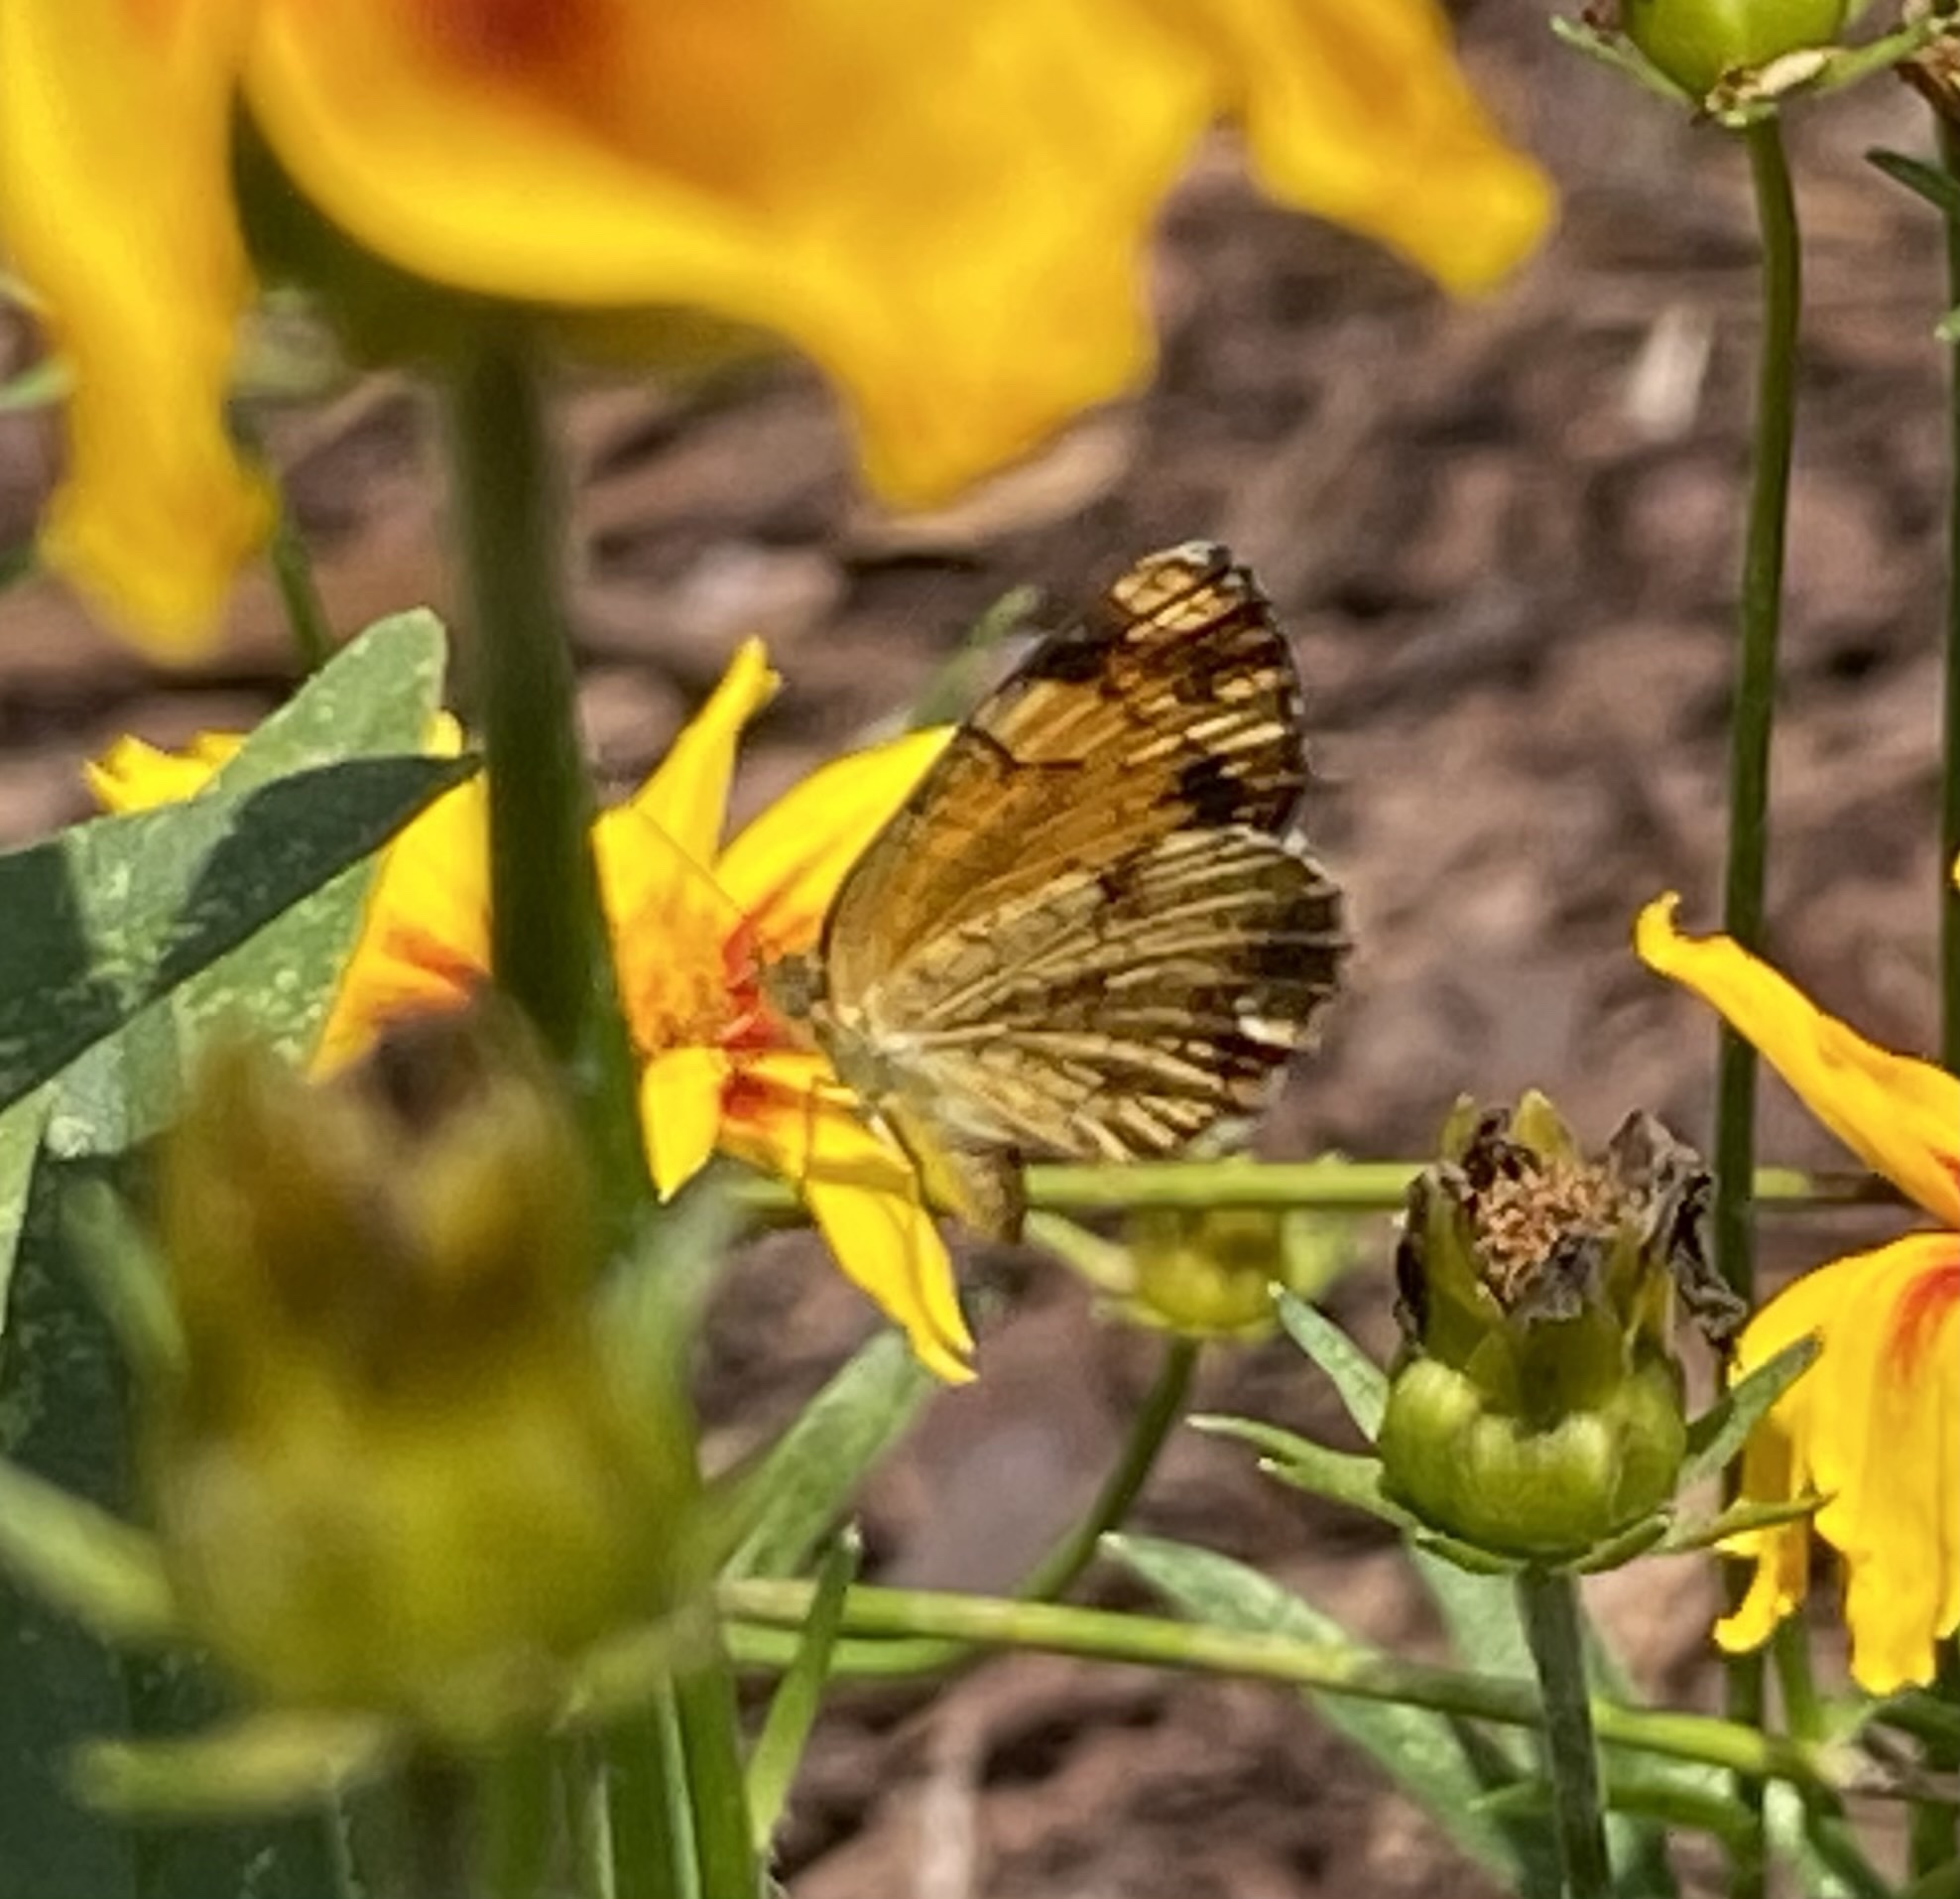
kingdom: Animalia
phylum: Arthropoda
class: Insecta
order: Lepidoptera
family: Nymphalidae
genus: Phyciodes
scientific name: Phyciodes tharos
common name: Pearl crescent
